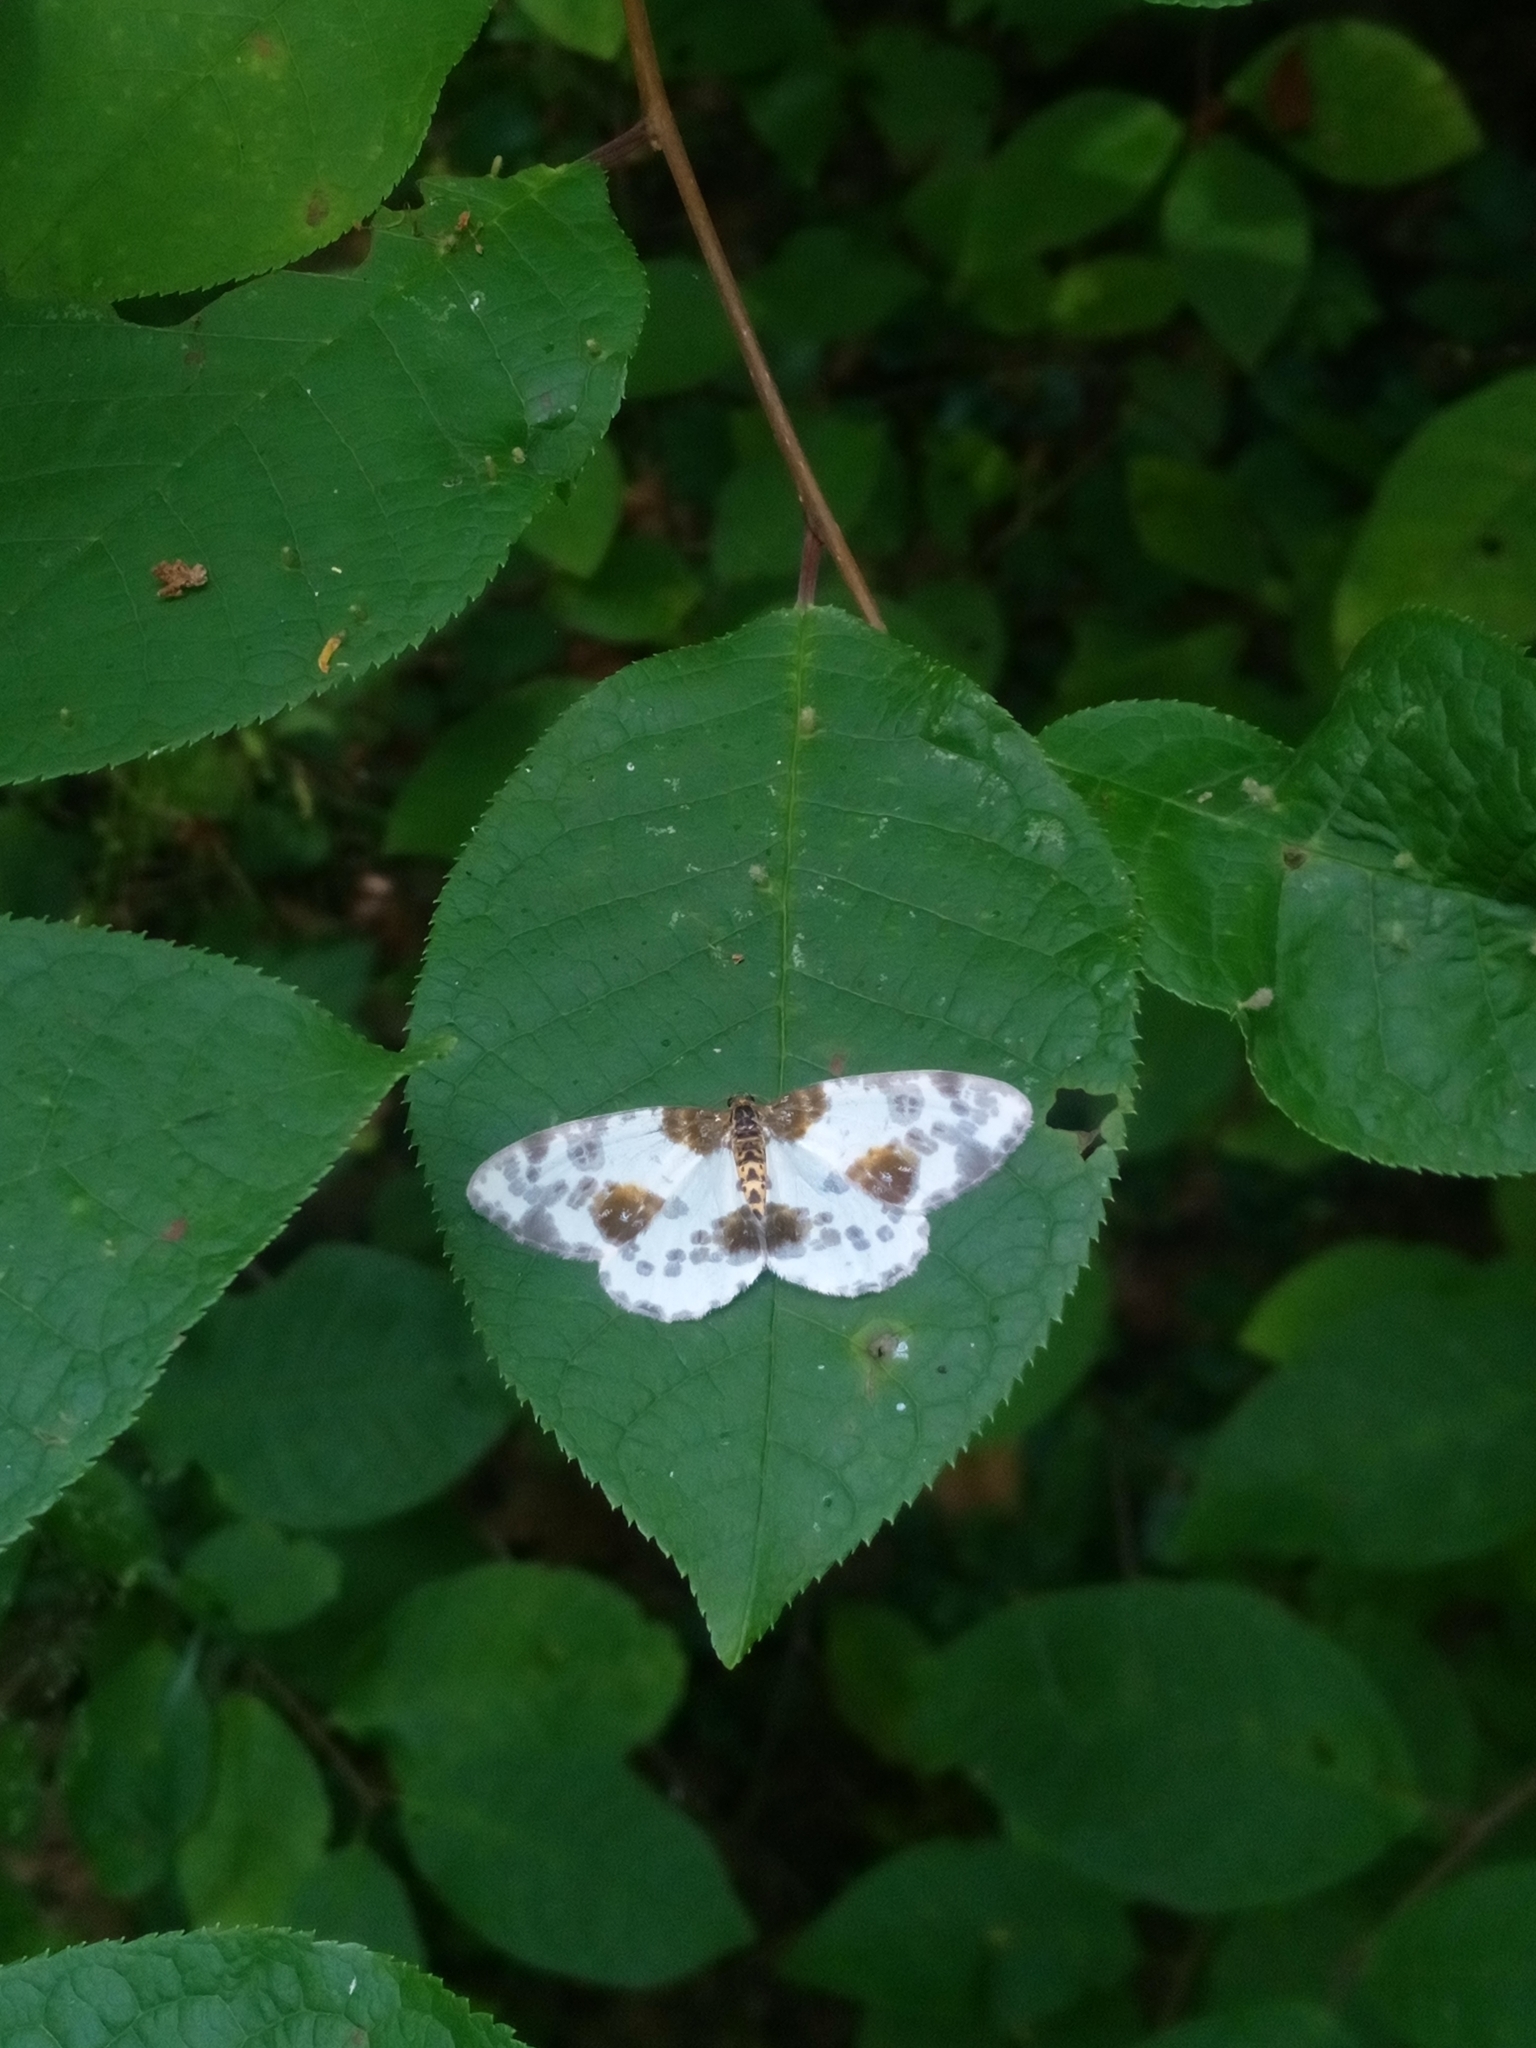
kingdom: Animalia
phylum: Arthropoda
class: Insecta
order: Lepidoptera
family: Geometridae
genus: Abraxas
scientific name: Abraxas sylvata
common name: Clouded magpie
